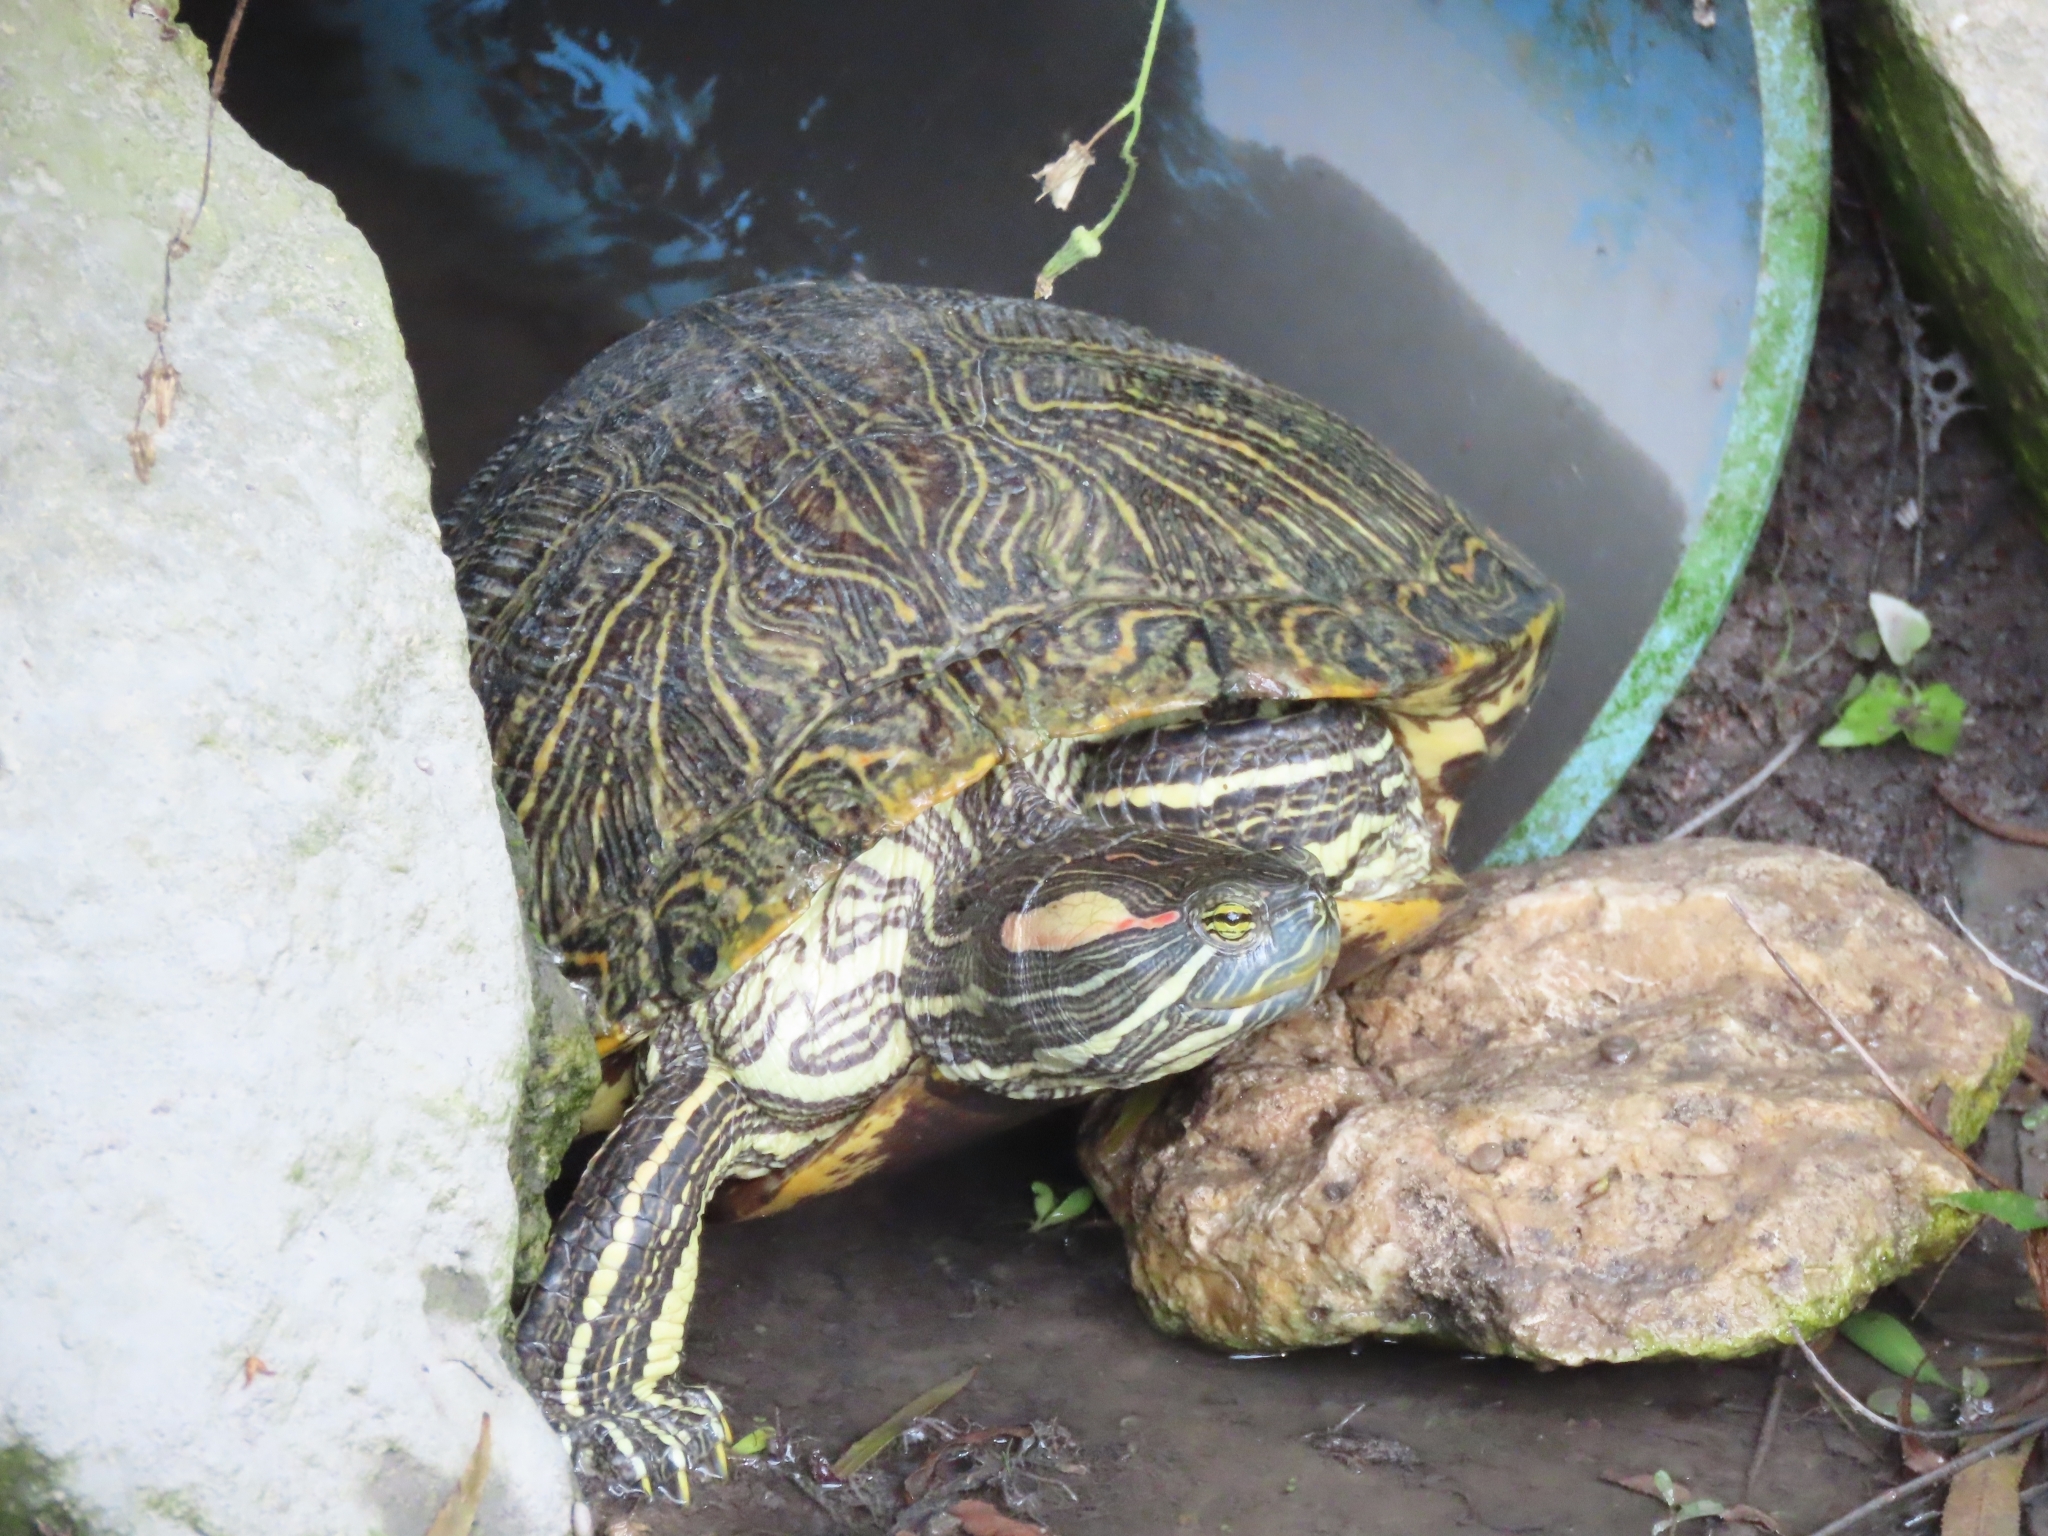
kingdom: Animalia
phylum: Chordata
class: Testudines
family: Emydidae
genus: Trachemys
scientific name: Trachemys scripta
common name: Slider
